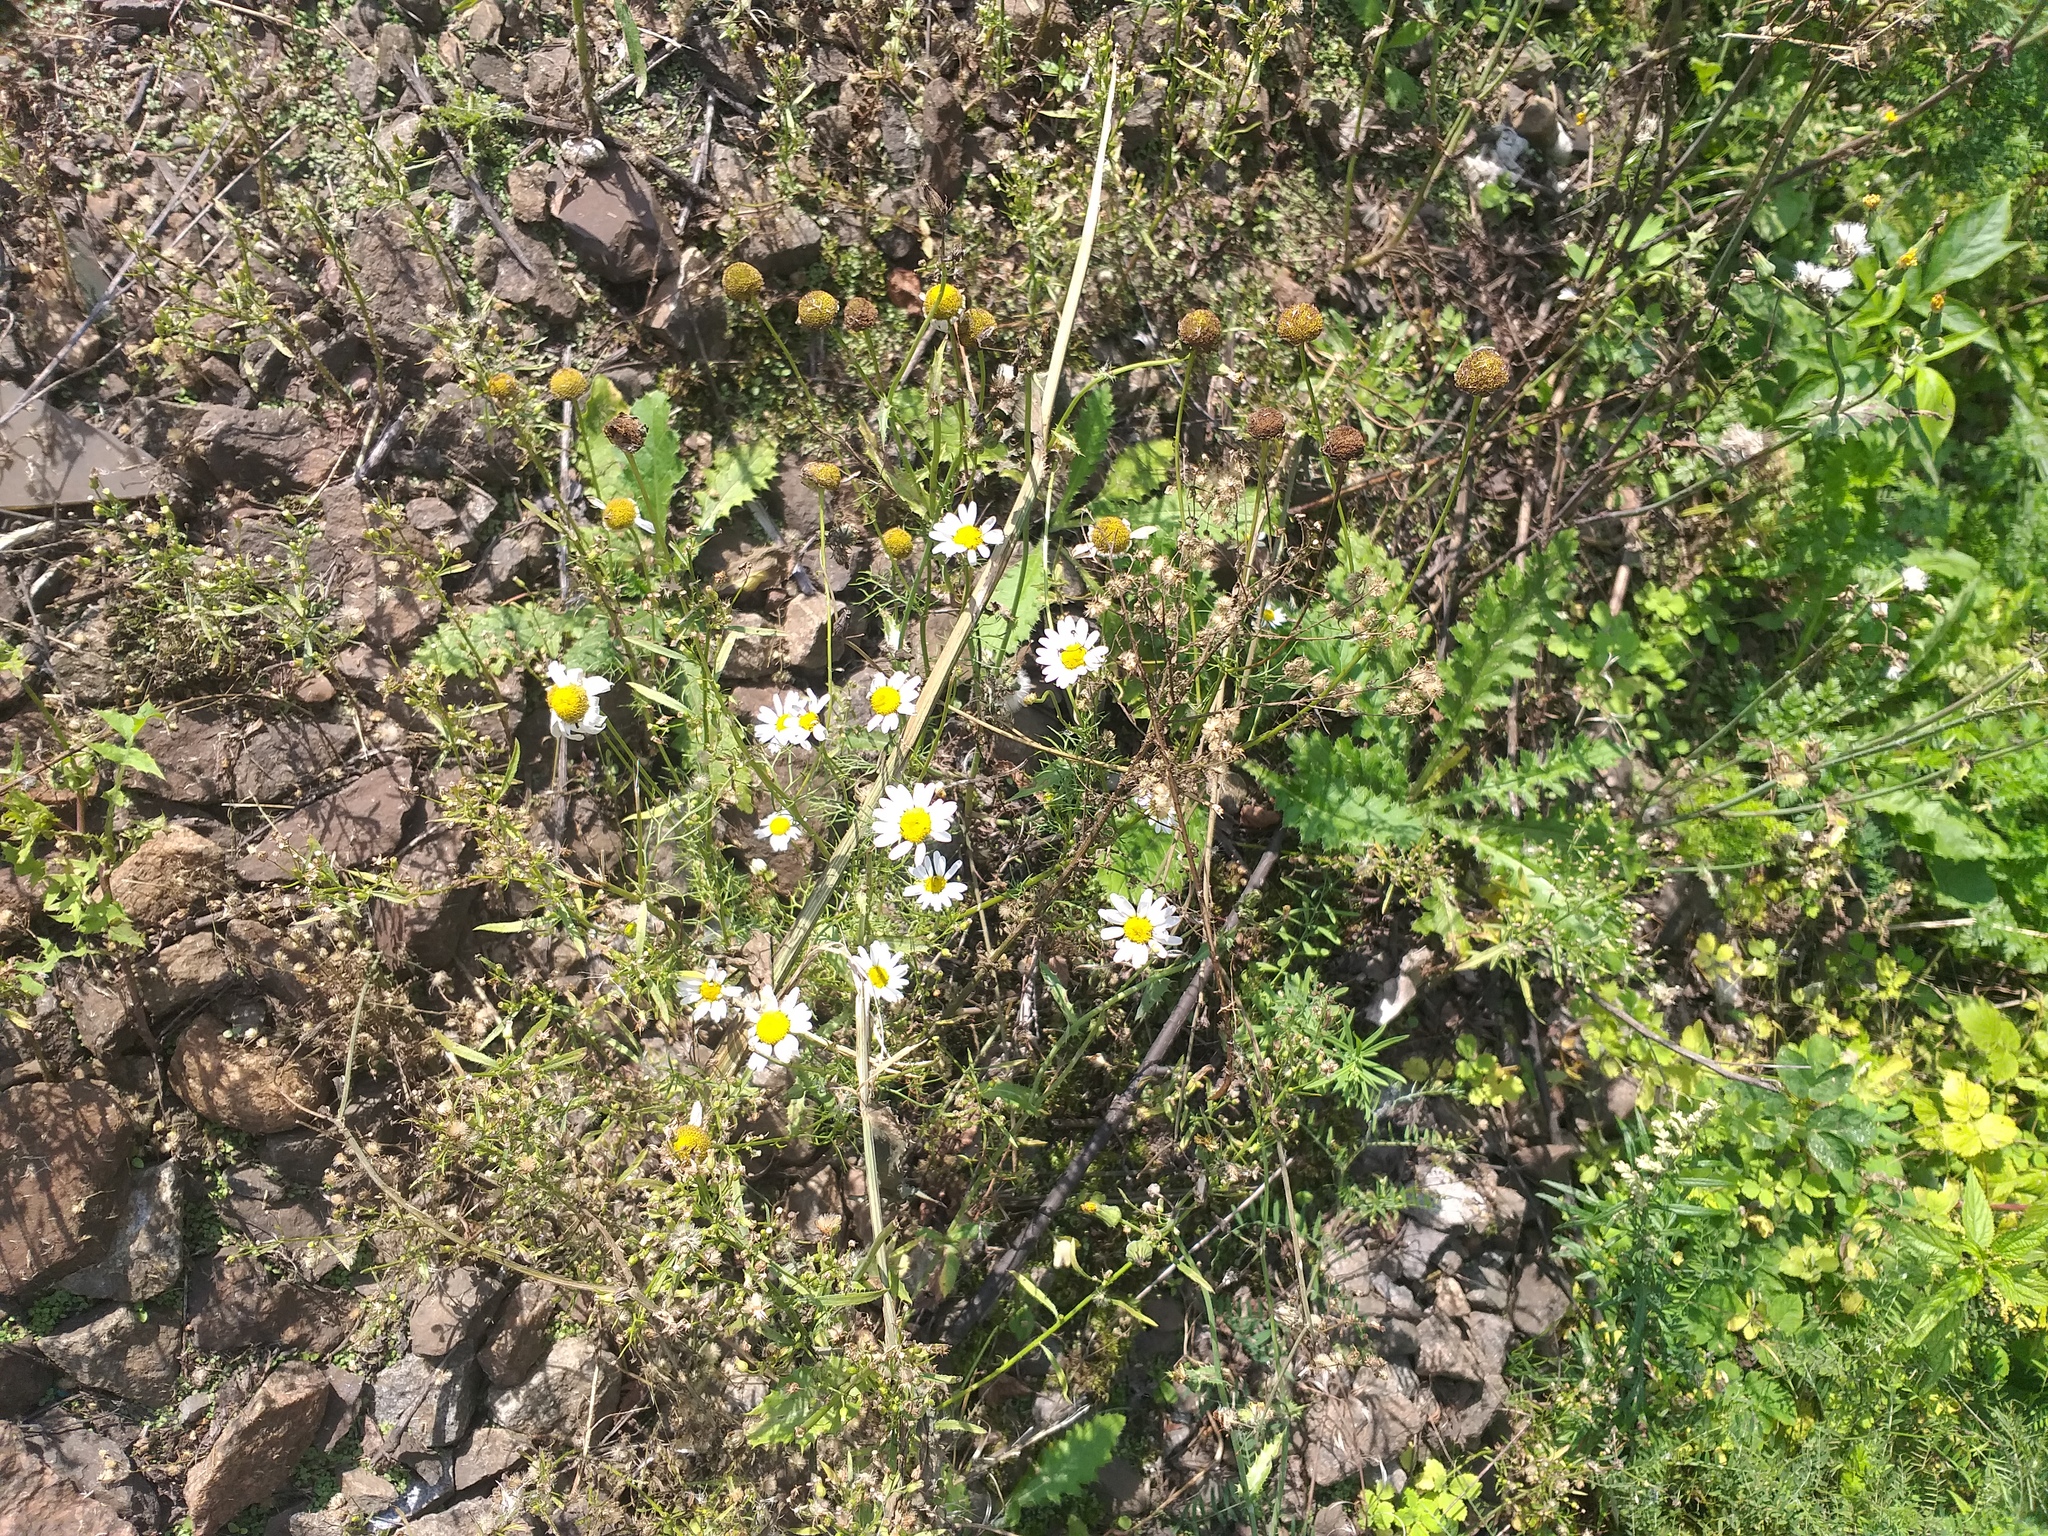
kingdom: Plantae
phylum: Tracheophyta
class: Magnoliopsida
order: Asterales
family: Asteraceae
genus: Tripleurospermum
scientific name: Tripleurospermum inodorum
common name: Scentless mayweed
